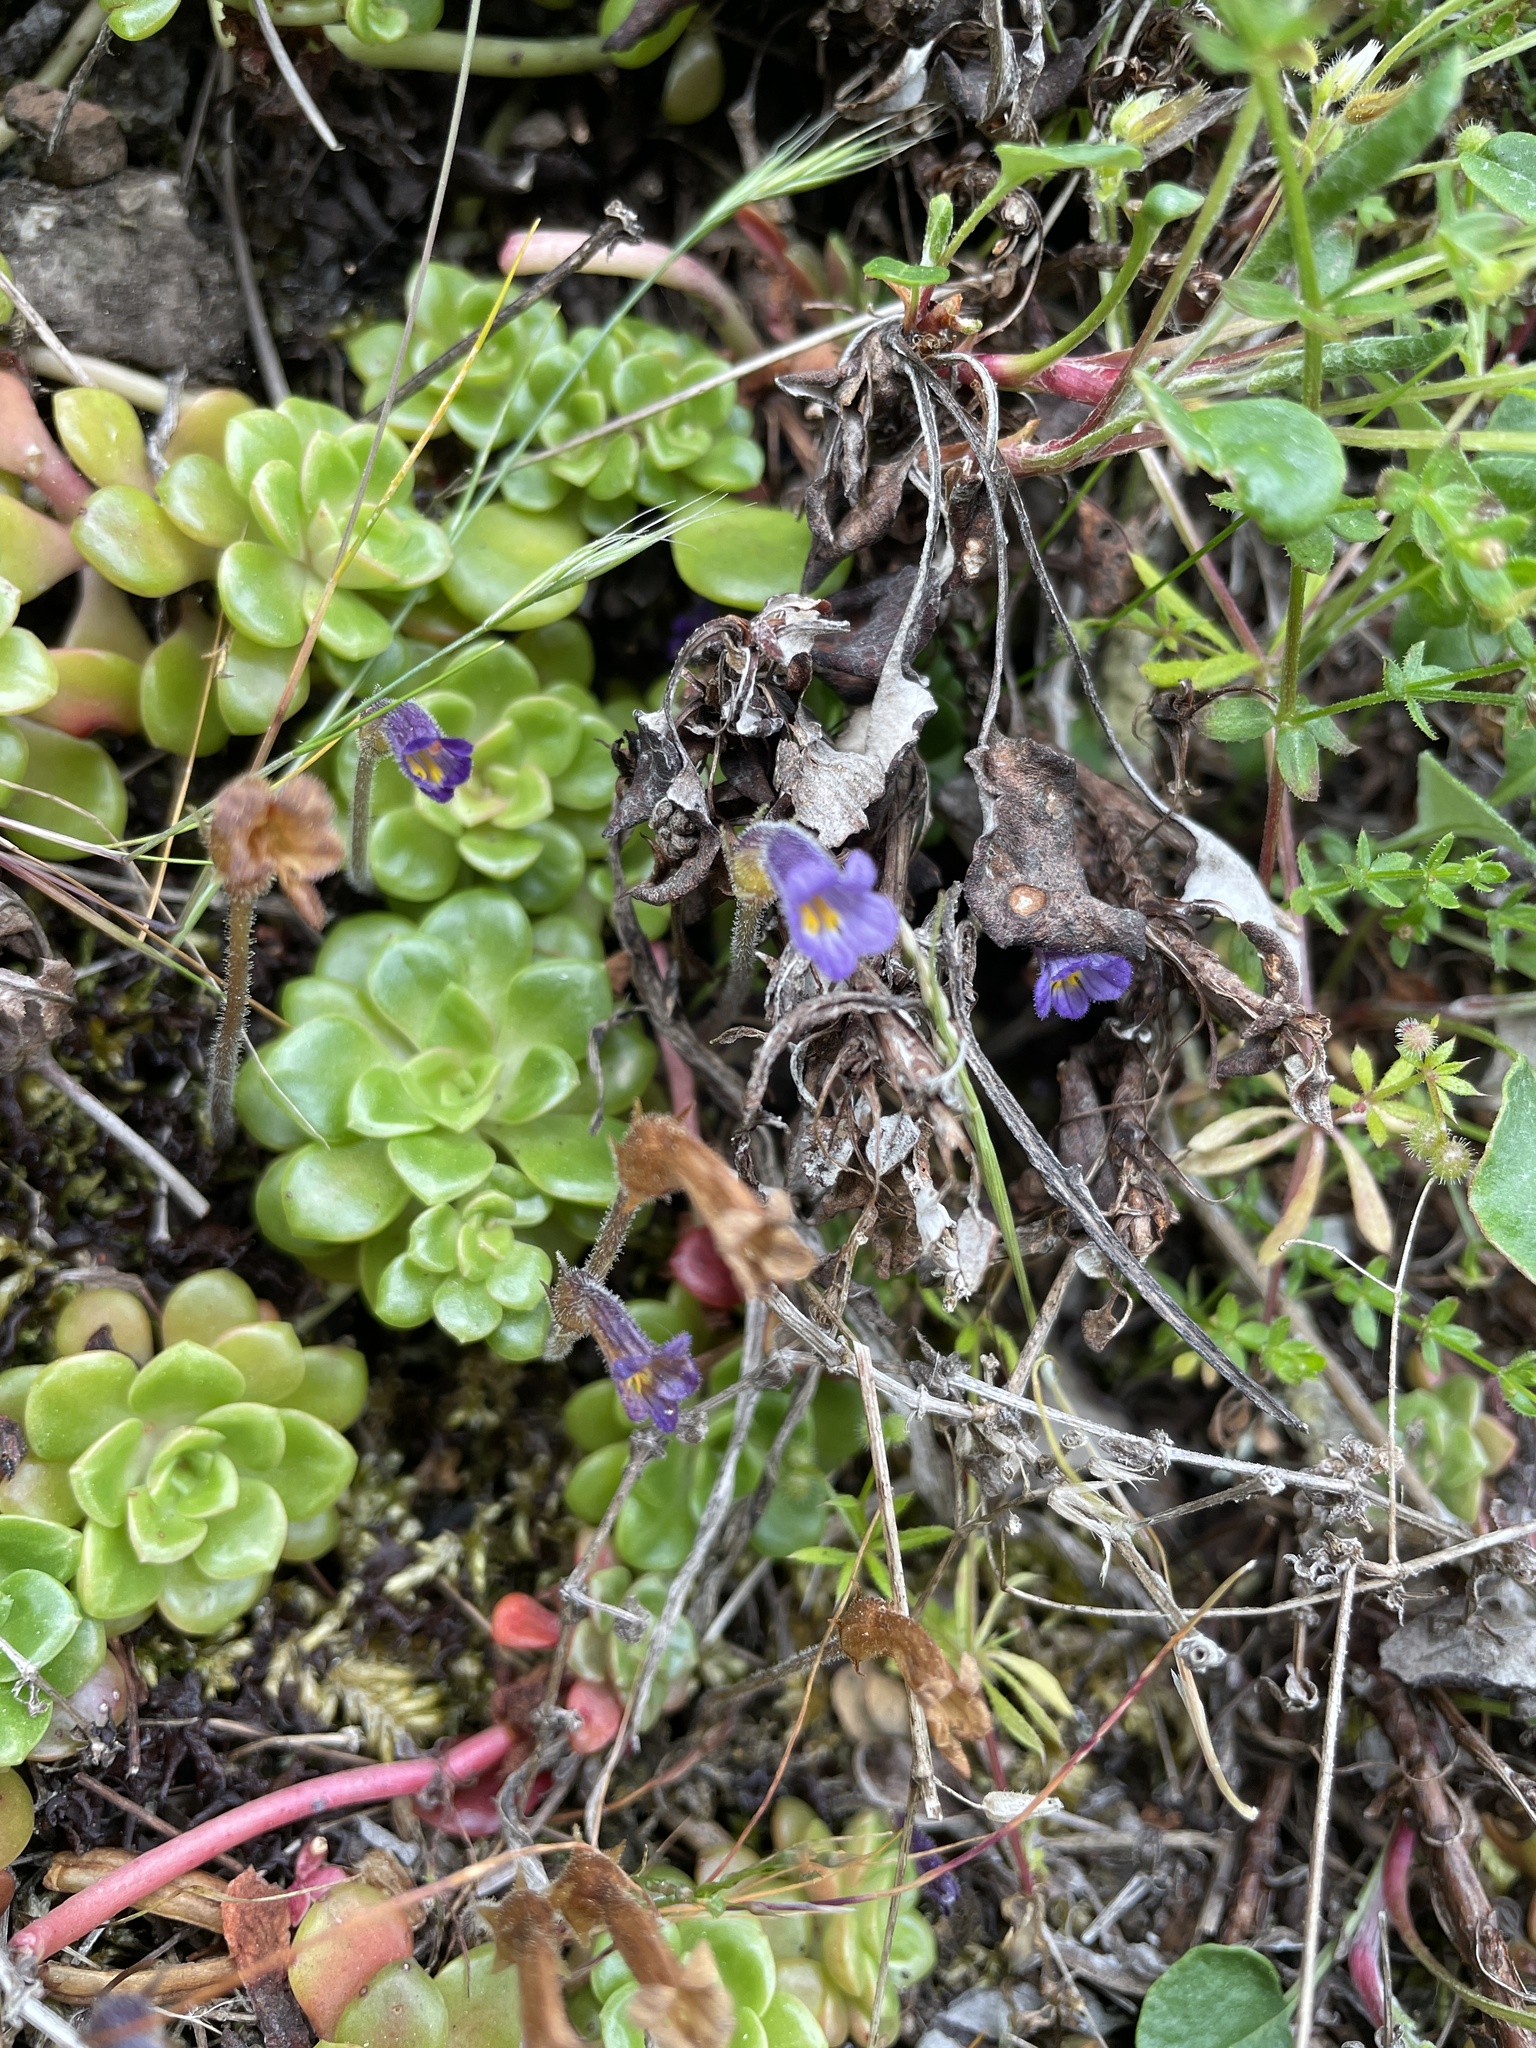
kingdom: Plantae
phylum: Tracheophyta
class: Magnoliopsida
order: Lamiales
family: Orobanchaceae
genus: Aphyllon
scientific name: Aphyllon uniflorum
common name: One-flowered broomrape
